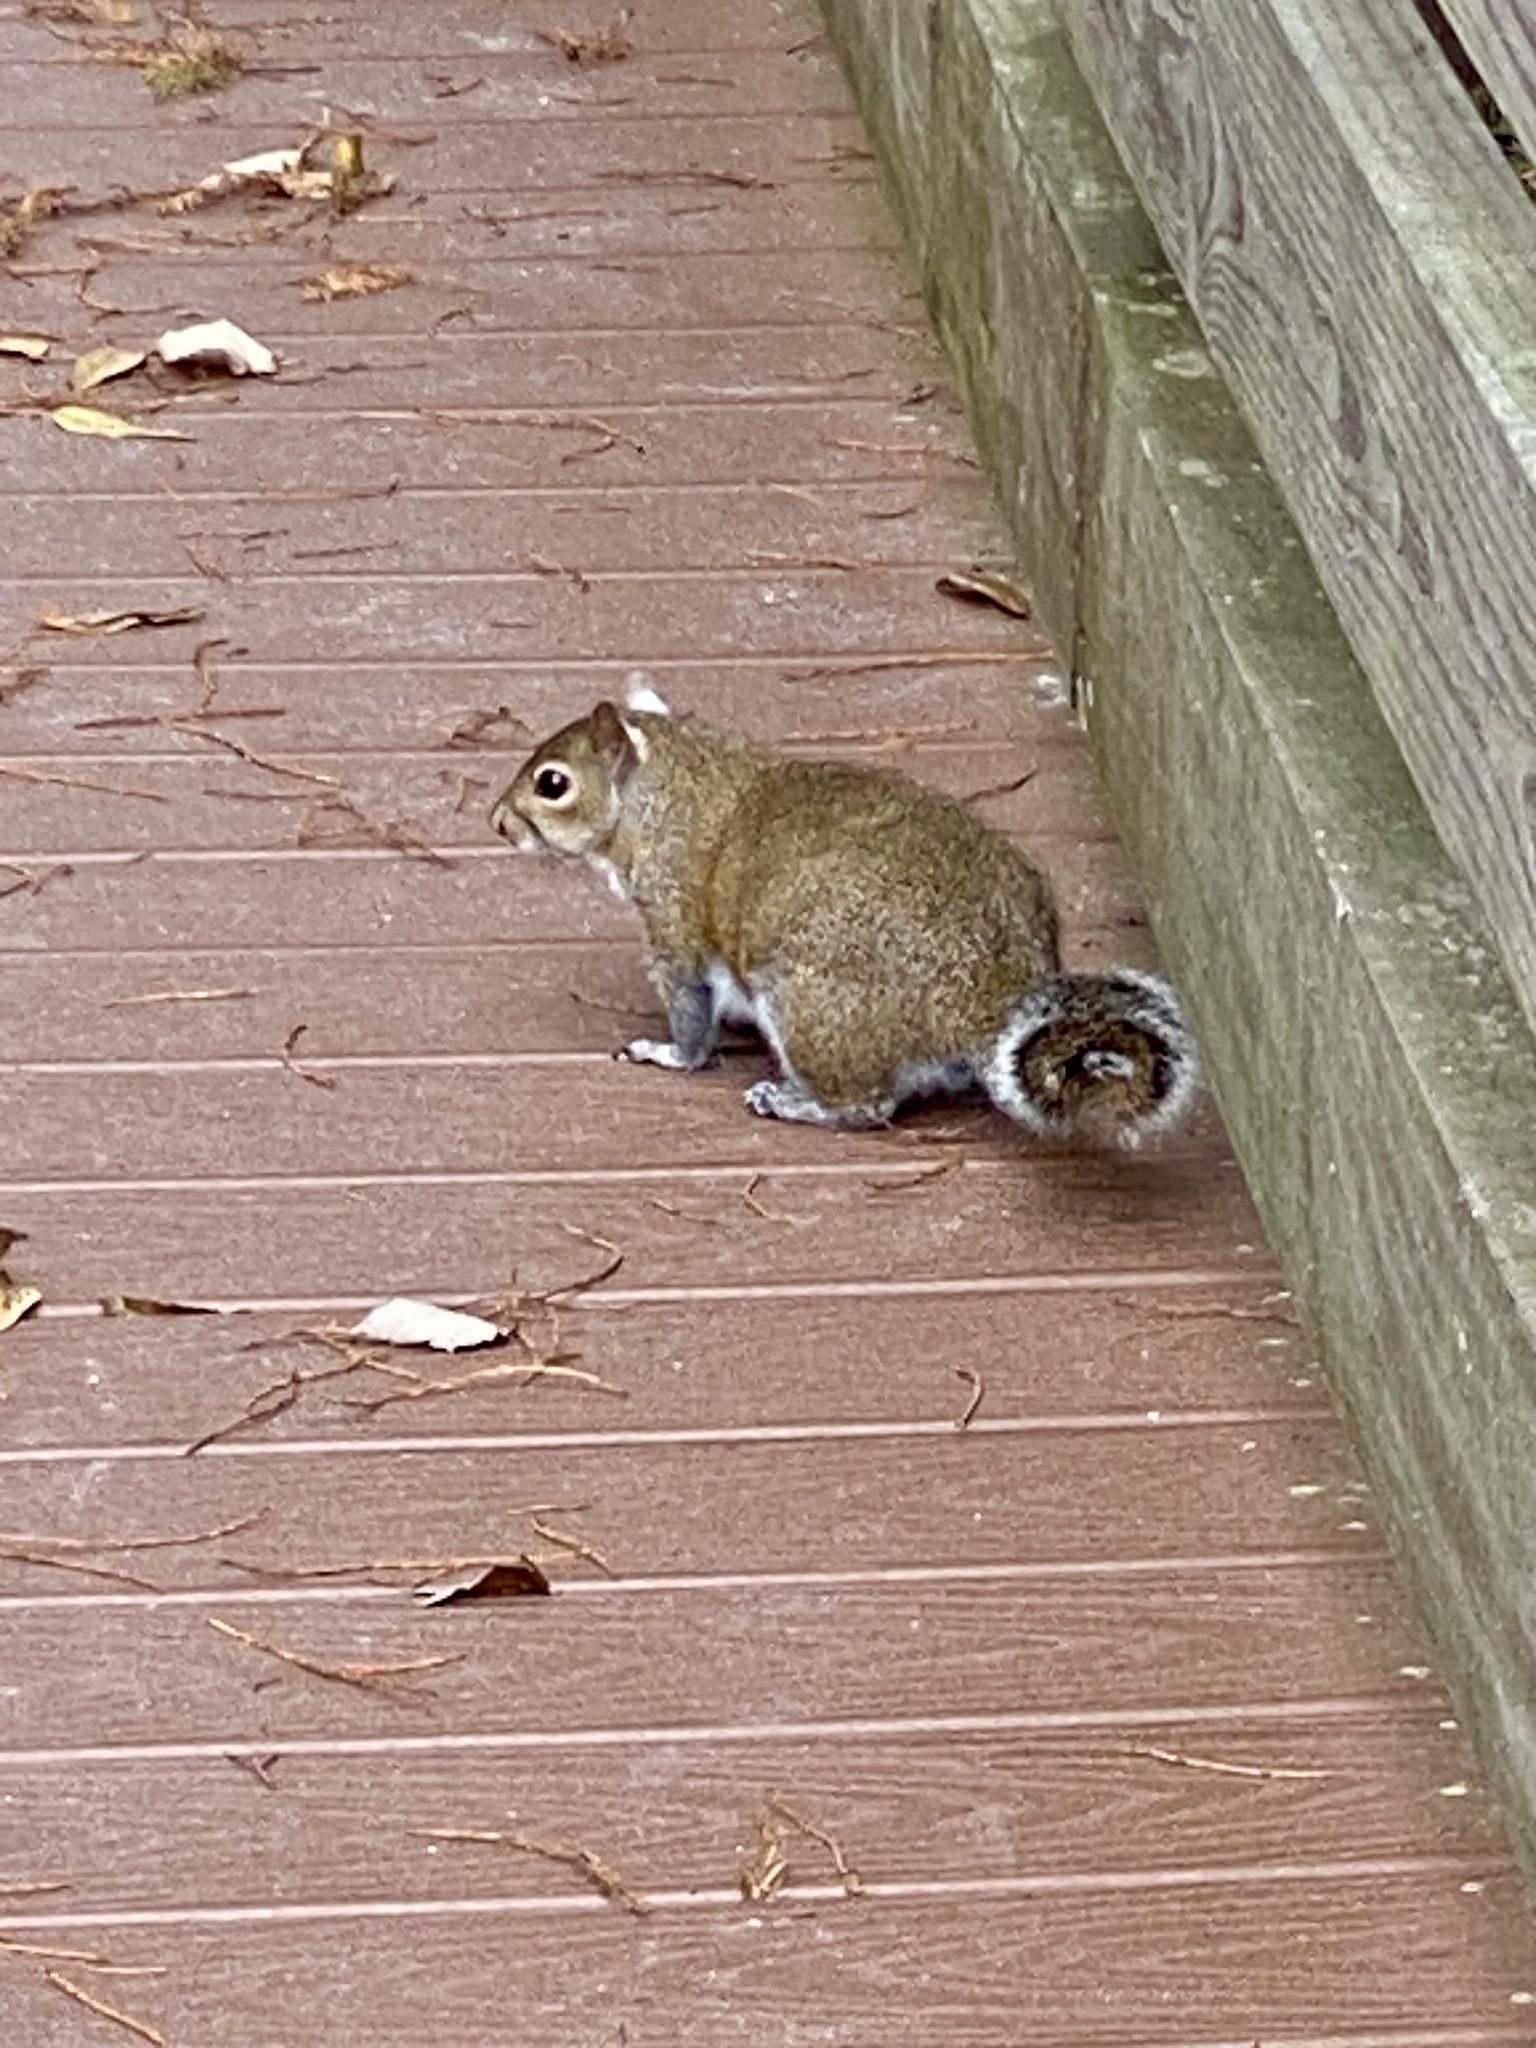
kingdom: Animalia
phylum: Chordata
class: Mammalia
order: Rodentia
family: Sciuridae
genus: Sciurus
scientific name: Sciurus carolinensis
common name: Eastern gray squirrel
